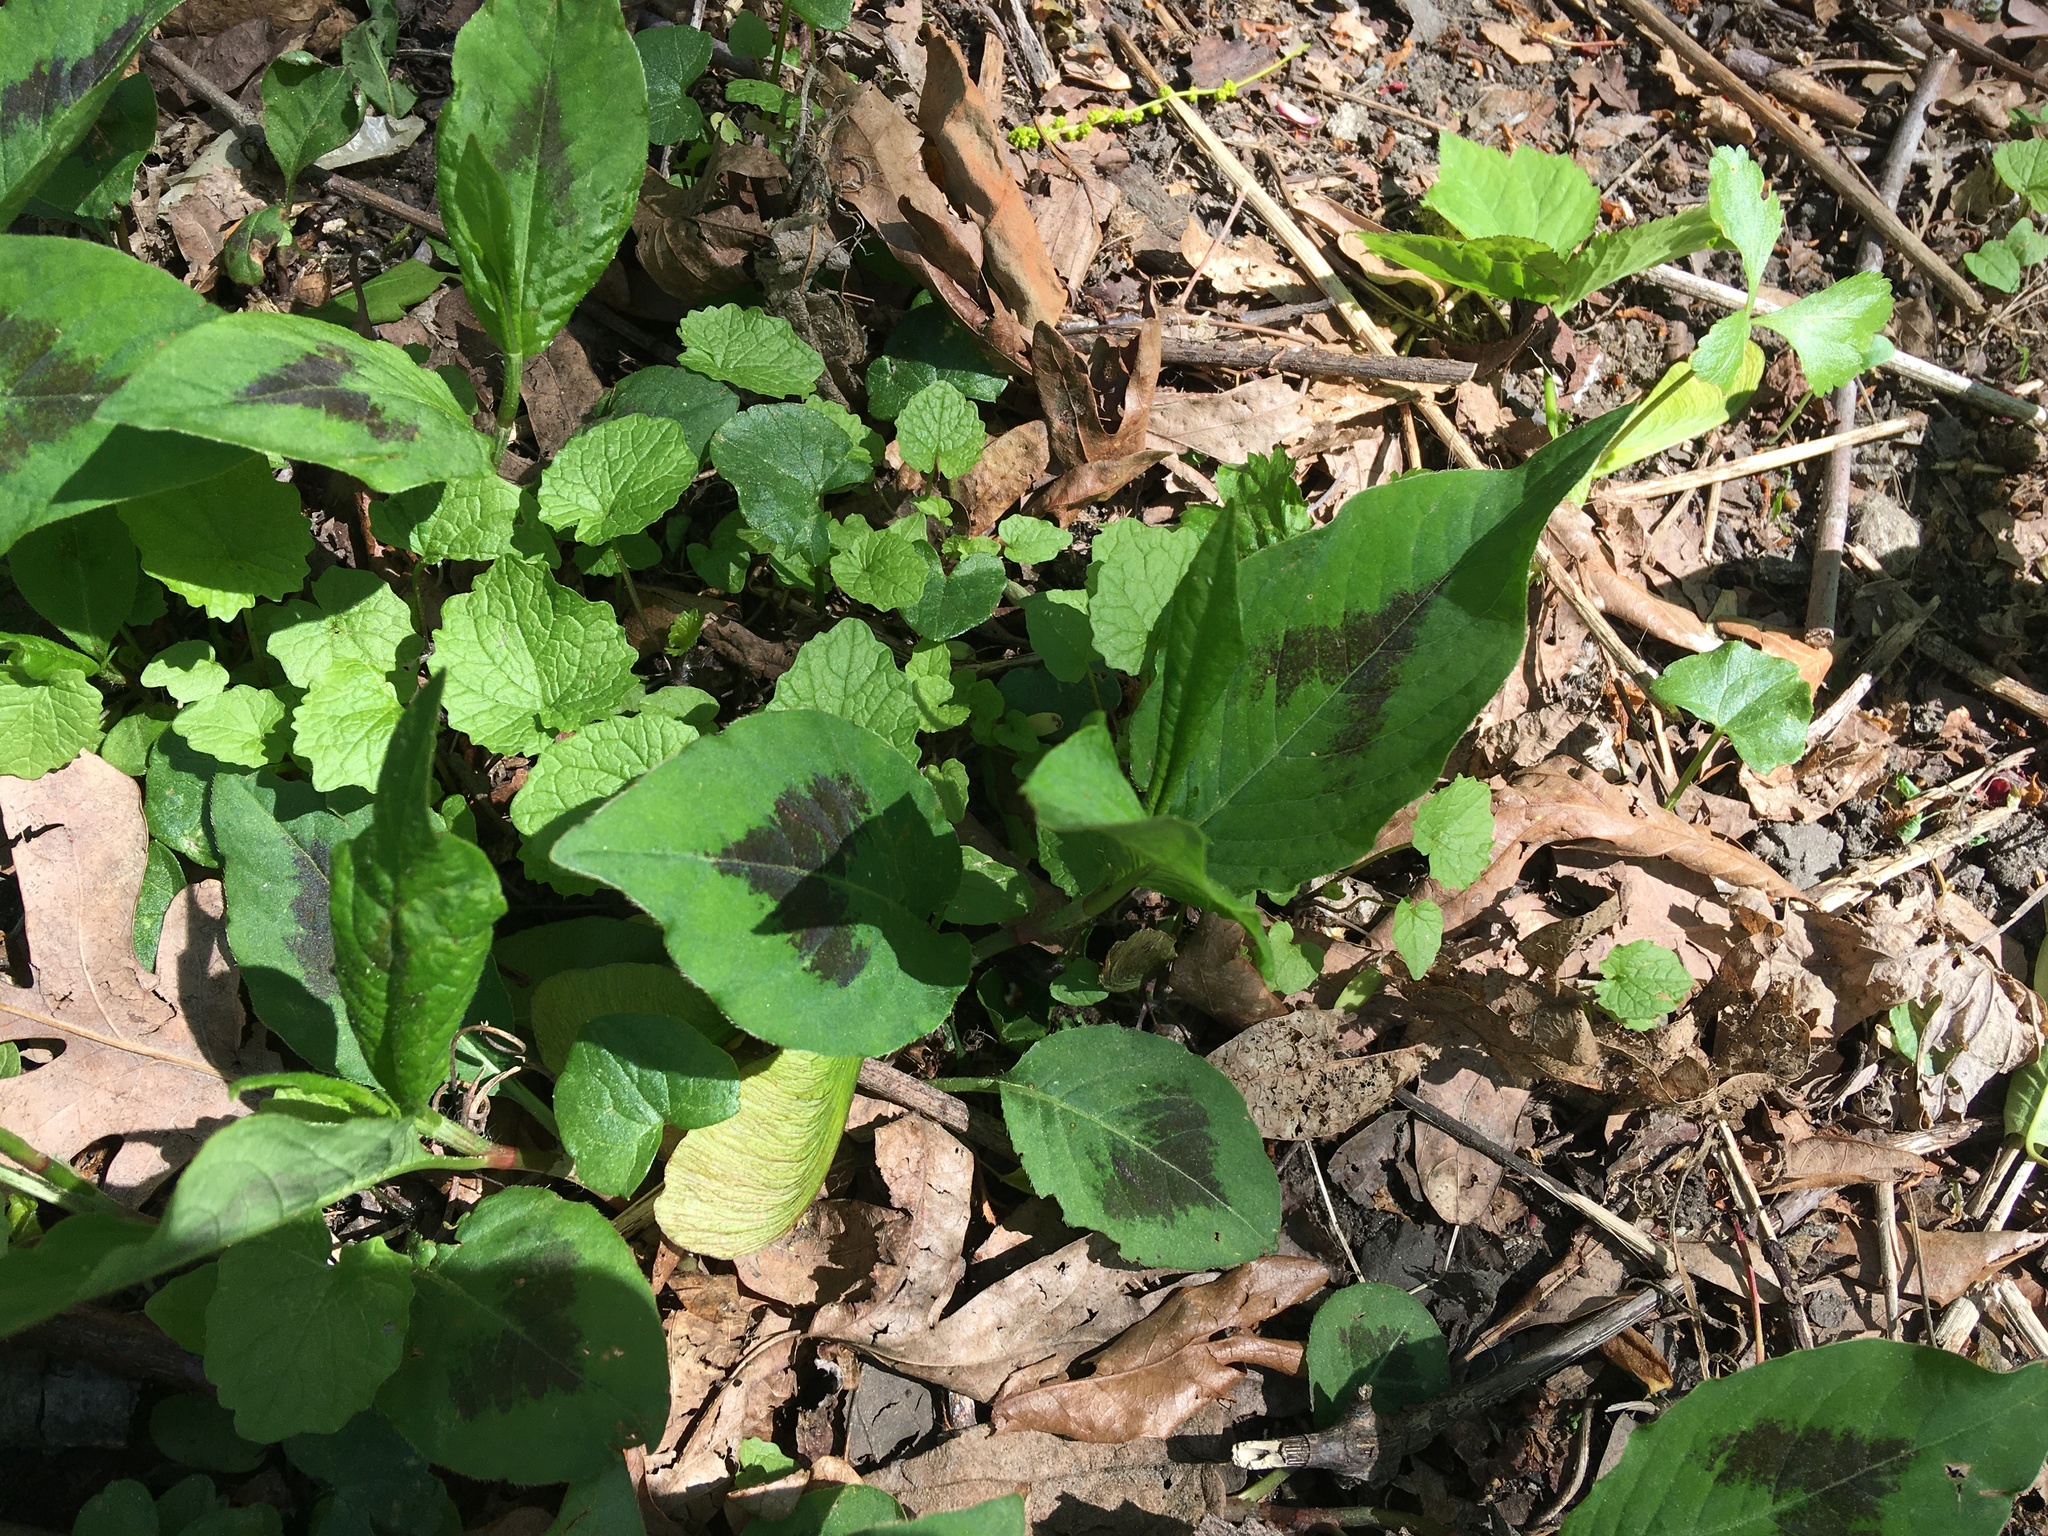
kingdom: Plantae
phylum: Tracheophyta
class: Magnoliopsida
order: Caryophyllales
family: Polygonaceae
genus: Persicaria
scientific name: Persicaria virginiana
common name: Jumpseed
